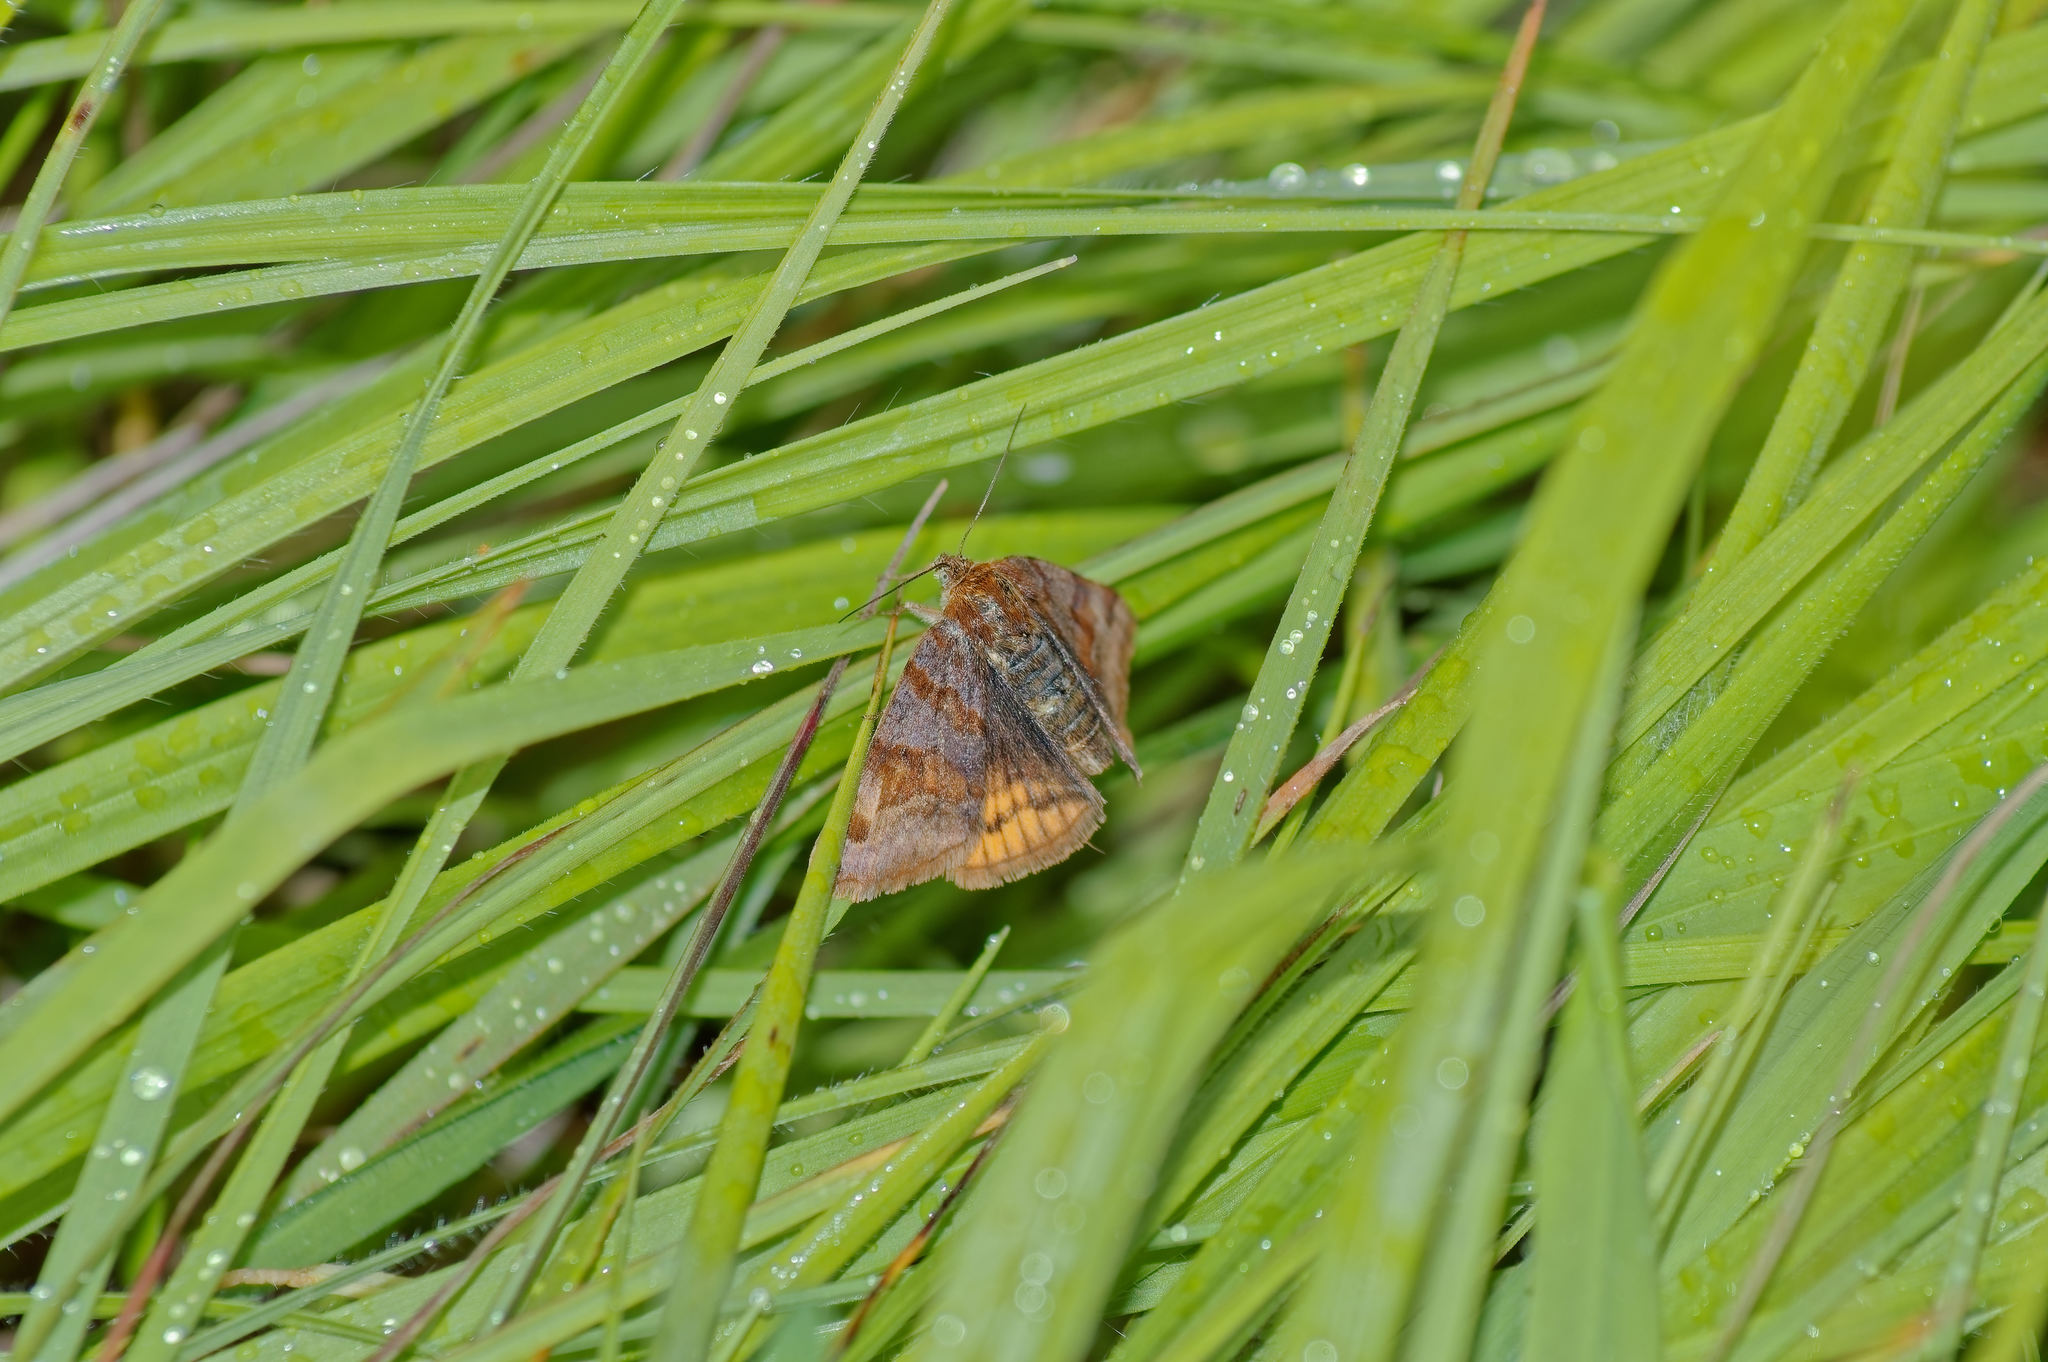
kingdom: Animalia
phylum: Arthropoda
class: Insecta
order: Lepidoptera
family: Erebidae
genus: Euclidia
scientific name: Euclidia glyphica
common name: Burnet companion
